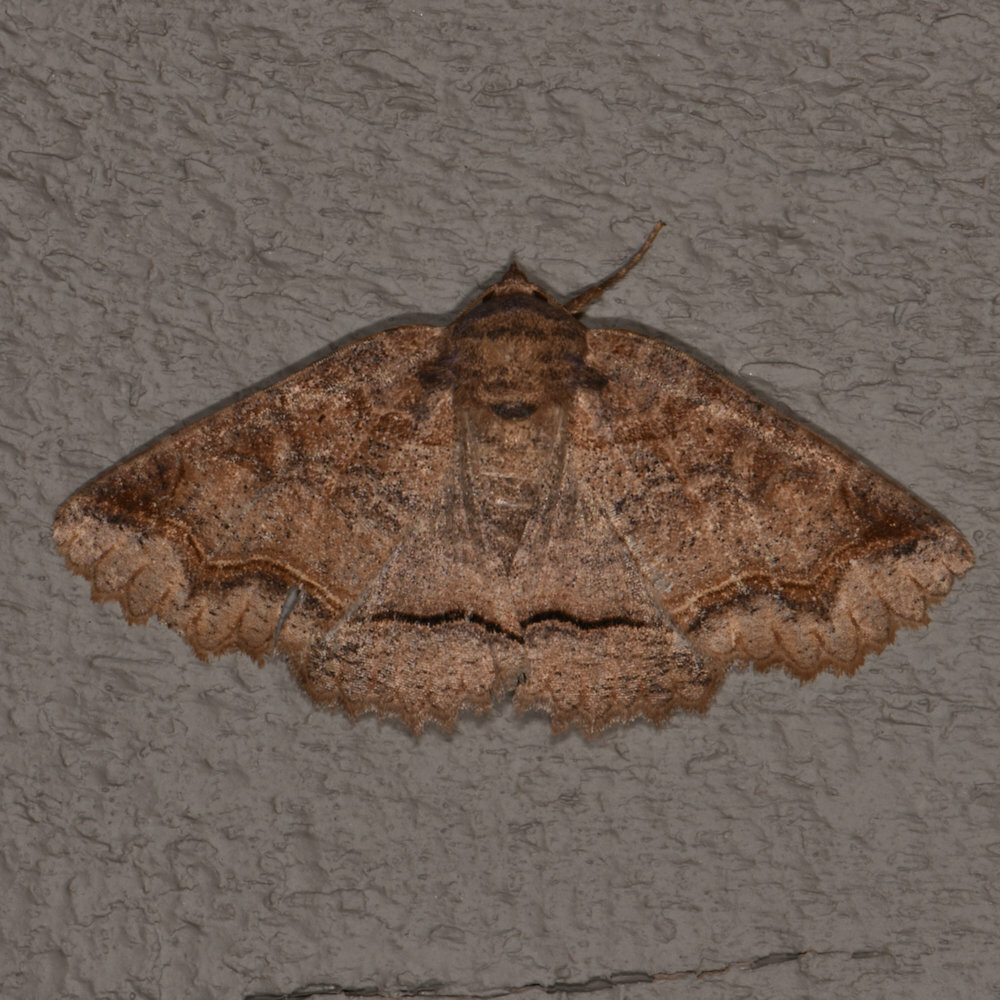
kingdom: Animalia
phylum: Arthropoda
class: Insecta
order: Lepidoptera
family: Erebidae
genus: Zale
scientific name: Zale unilineata
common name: One-lined zale moth
